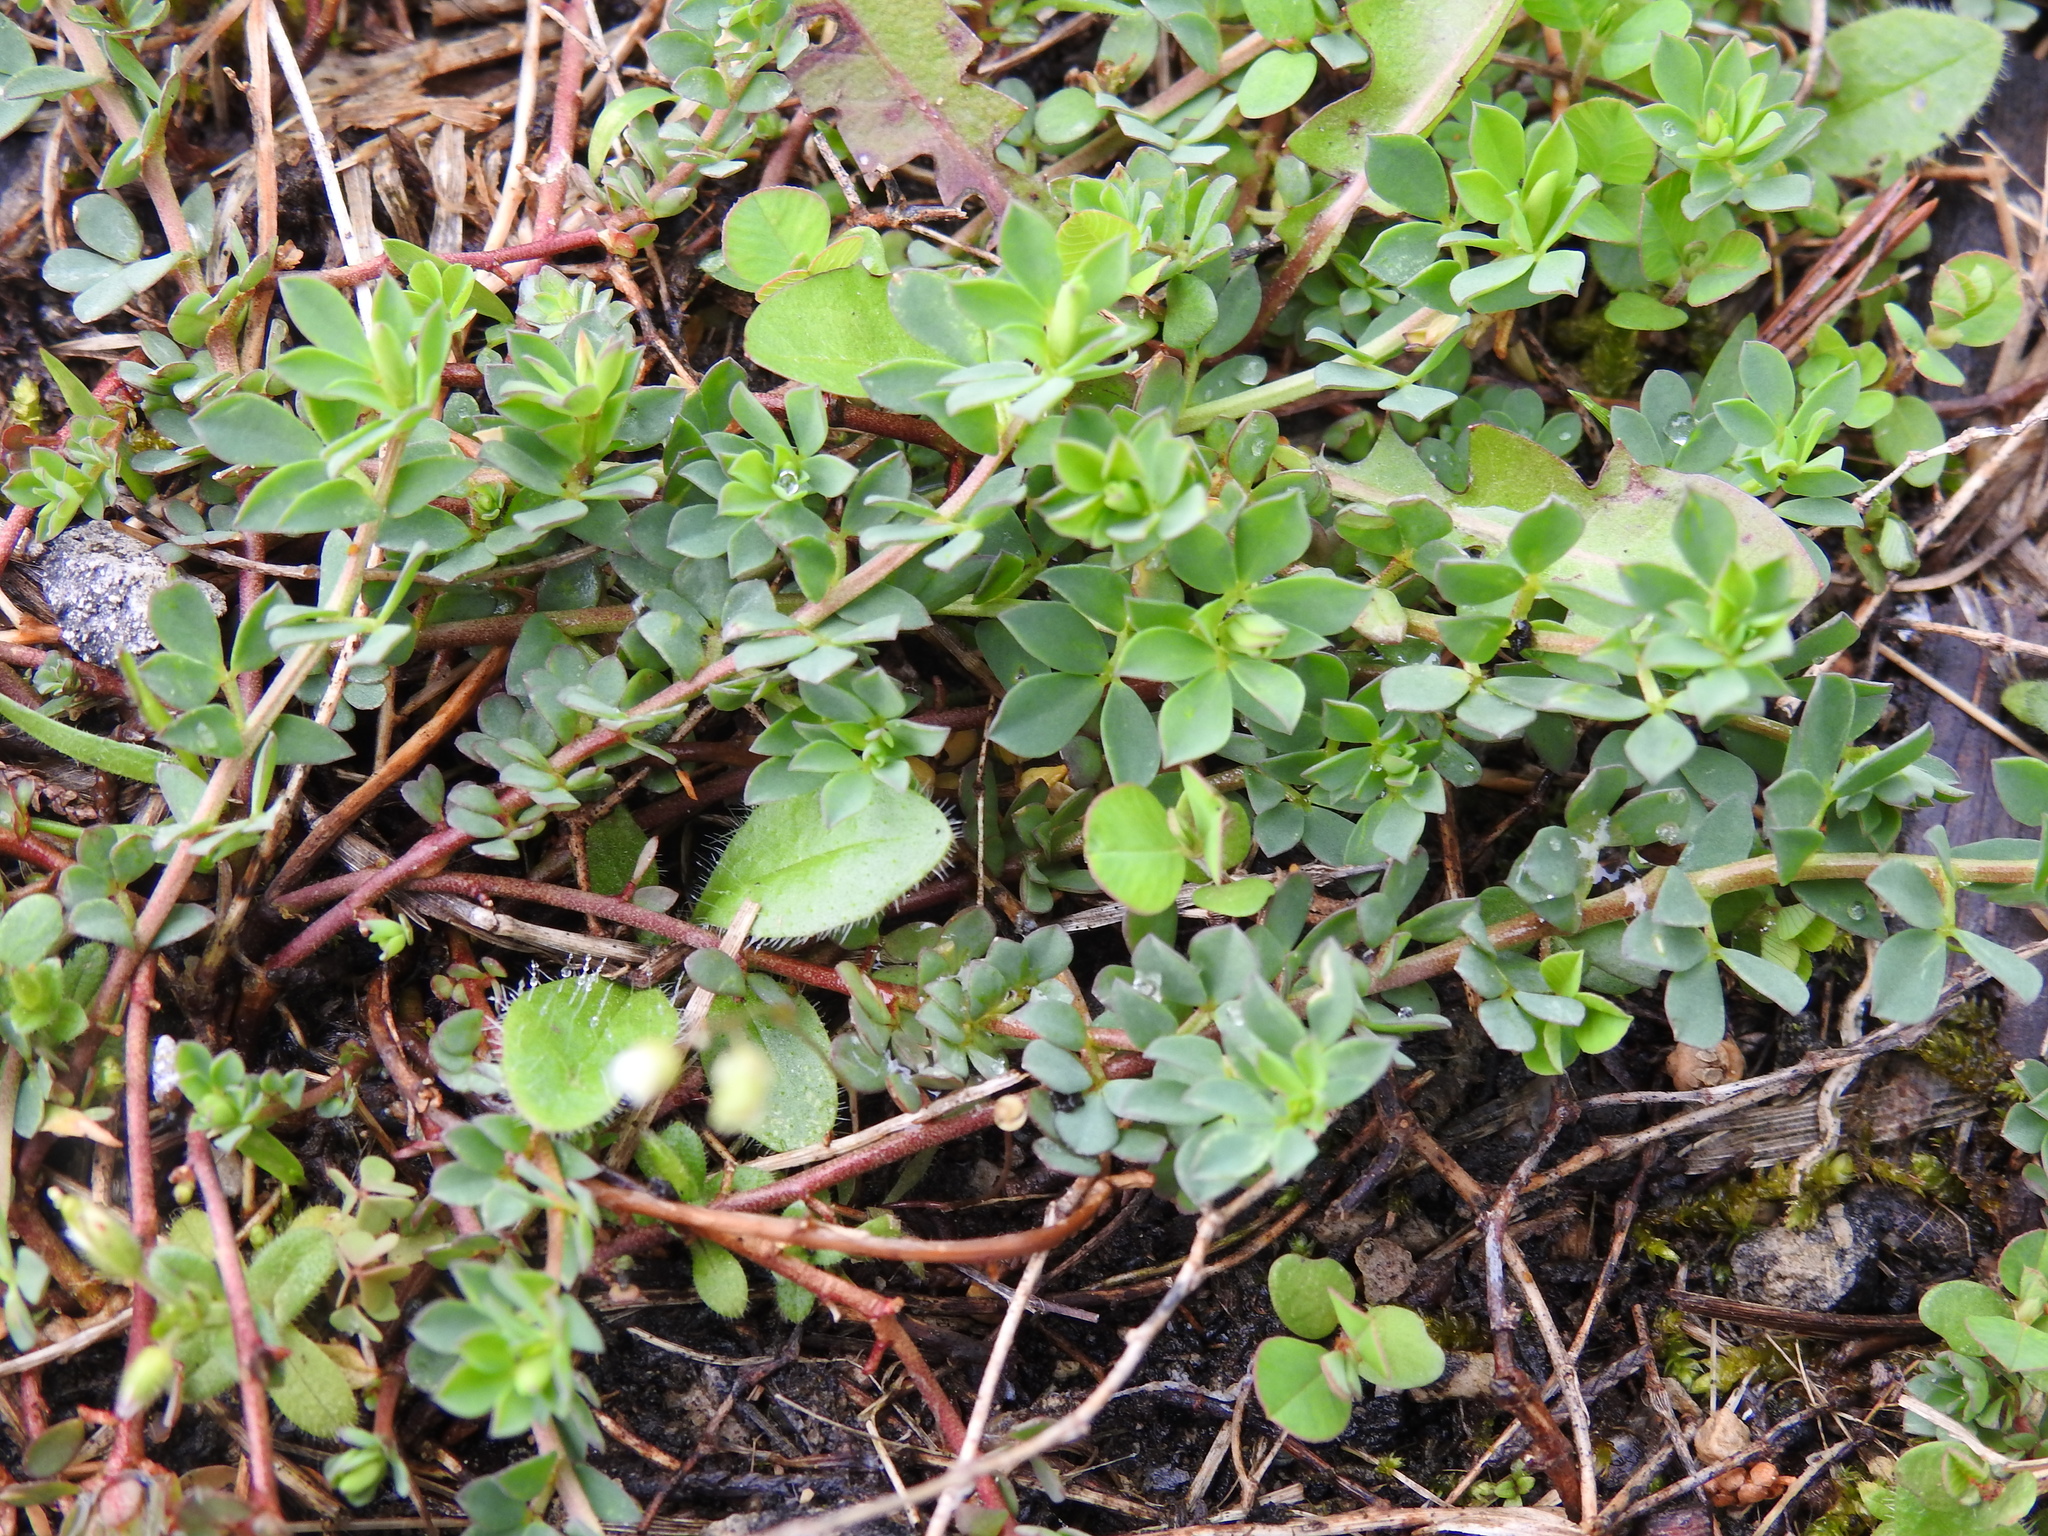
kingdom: Plantae
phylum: Tracheophyta
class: Magnoliopsida
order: Fabales
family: Fabaceae
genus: Lotus
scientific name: Lotus corniculatus
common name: Common bird's-foot-trefoil
